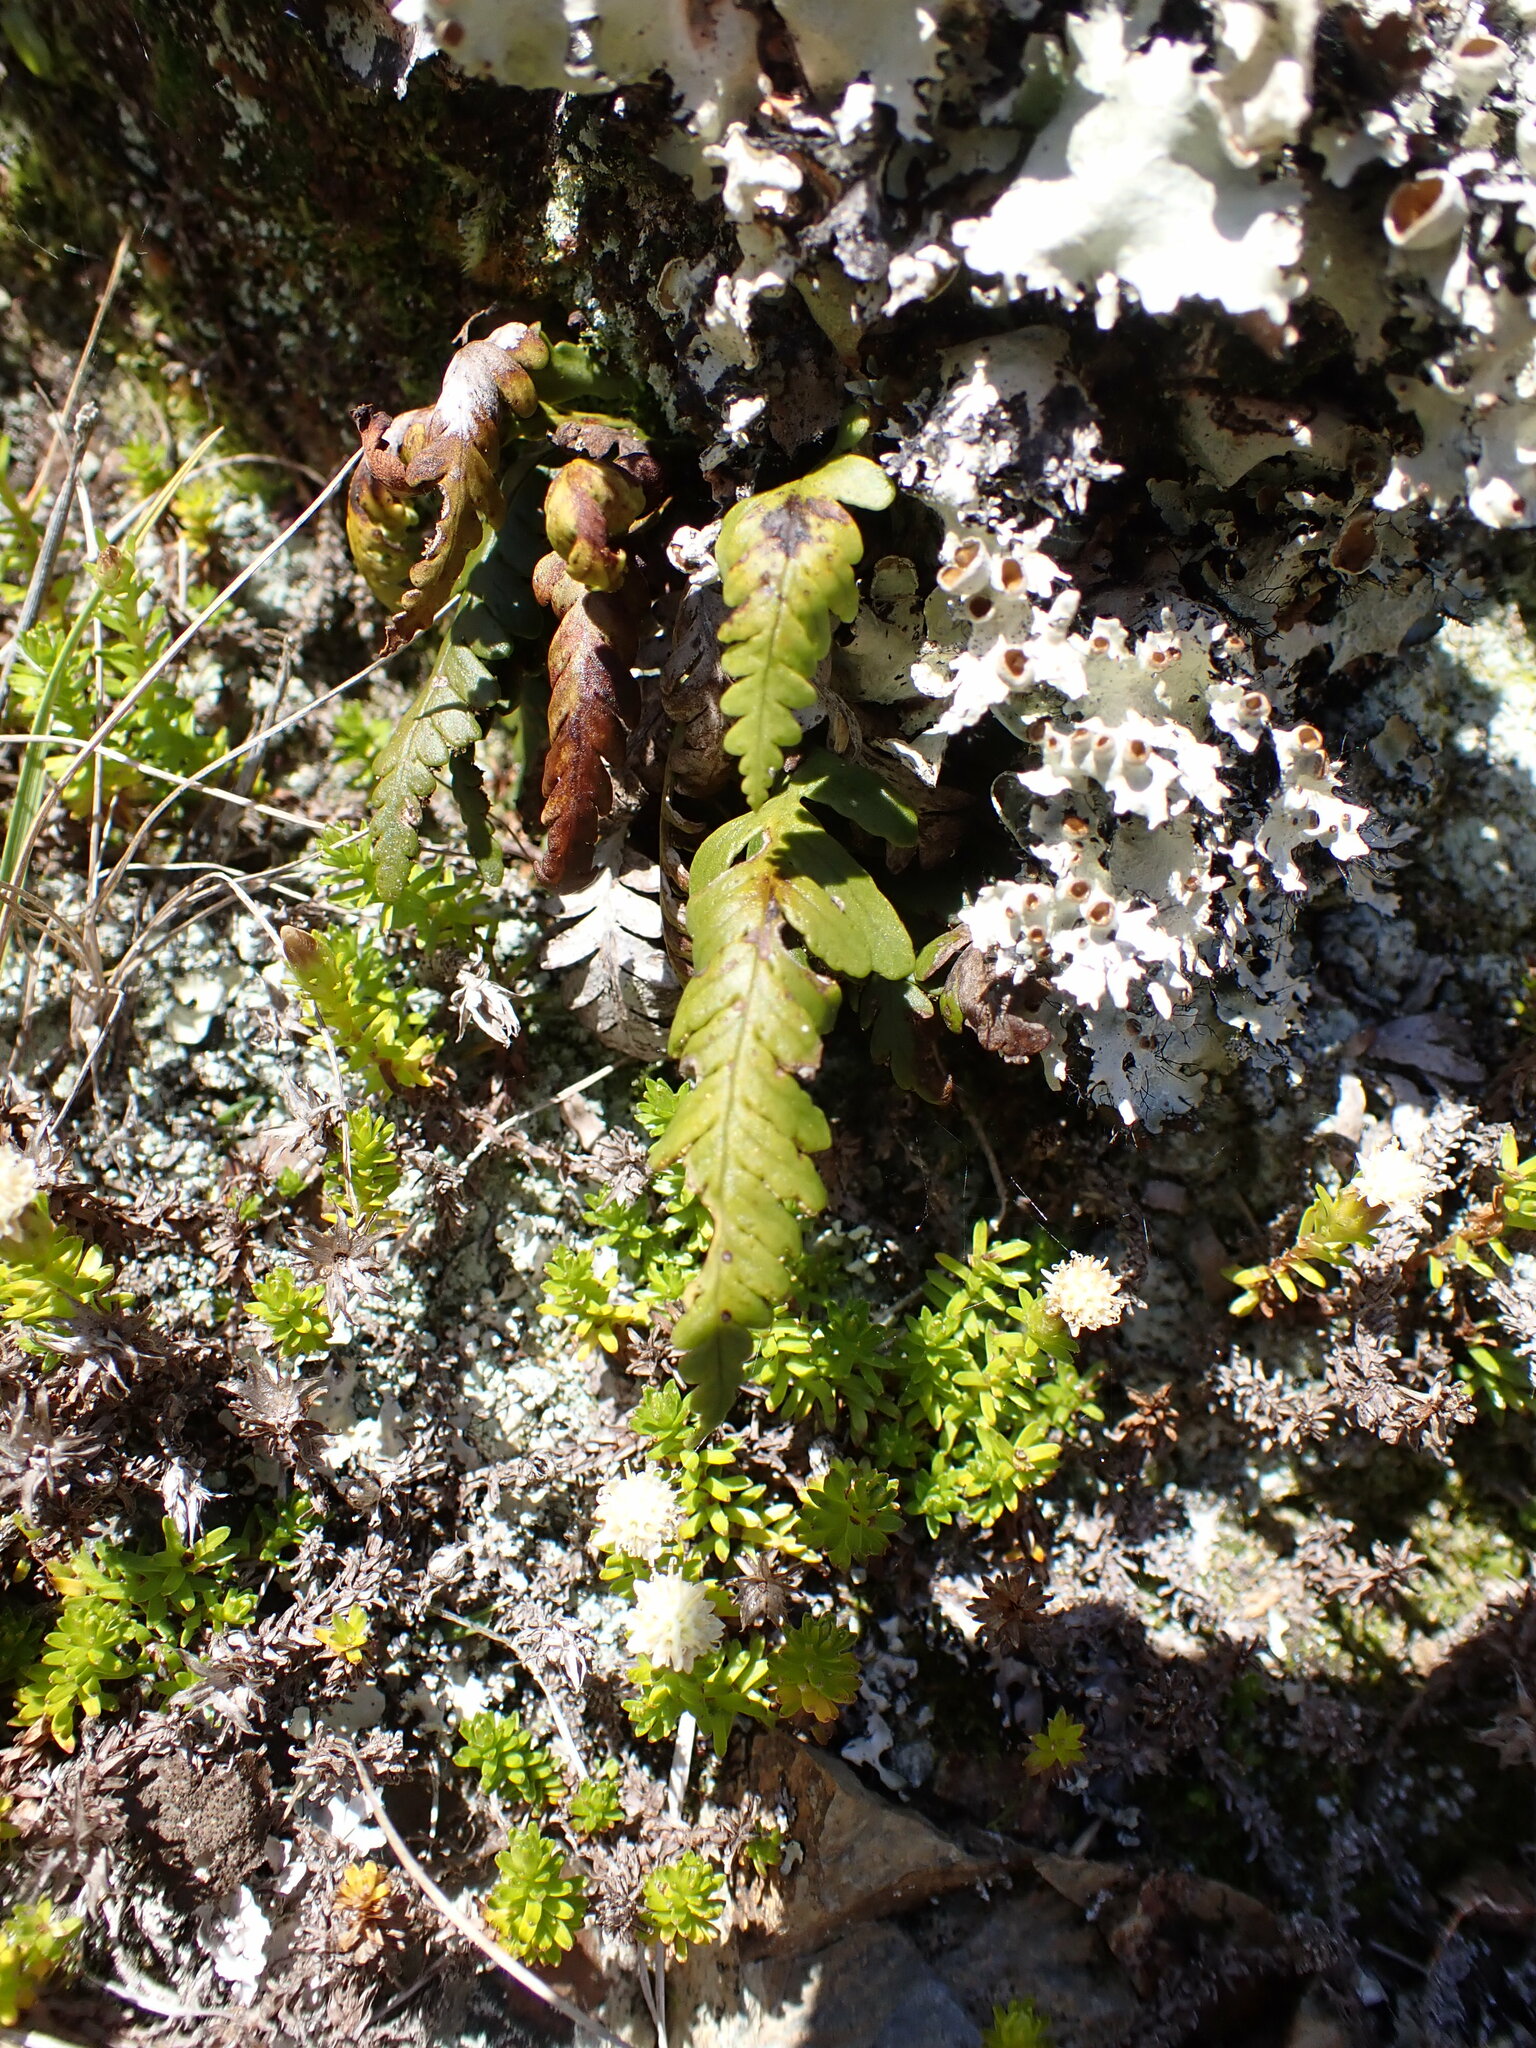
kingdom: Plantae
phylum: Tracheophyta
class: Polypodiopsida
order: Polypodiales
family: Polypodiaceae
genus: Notogrammitis
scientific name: Notogrammitis heterophylla
